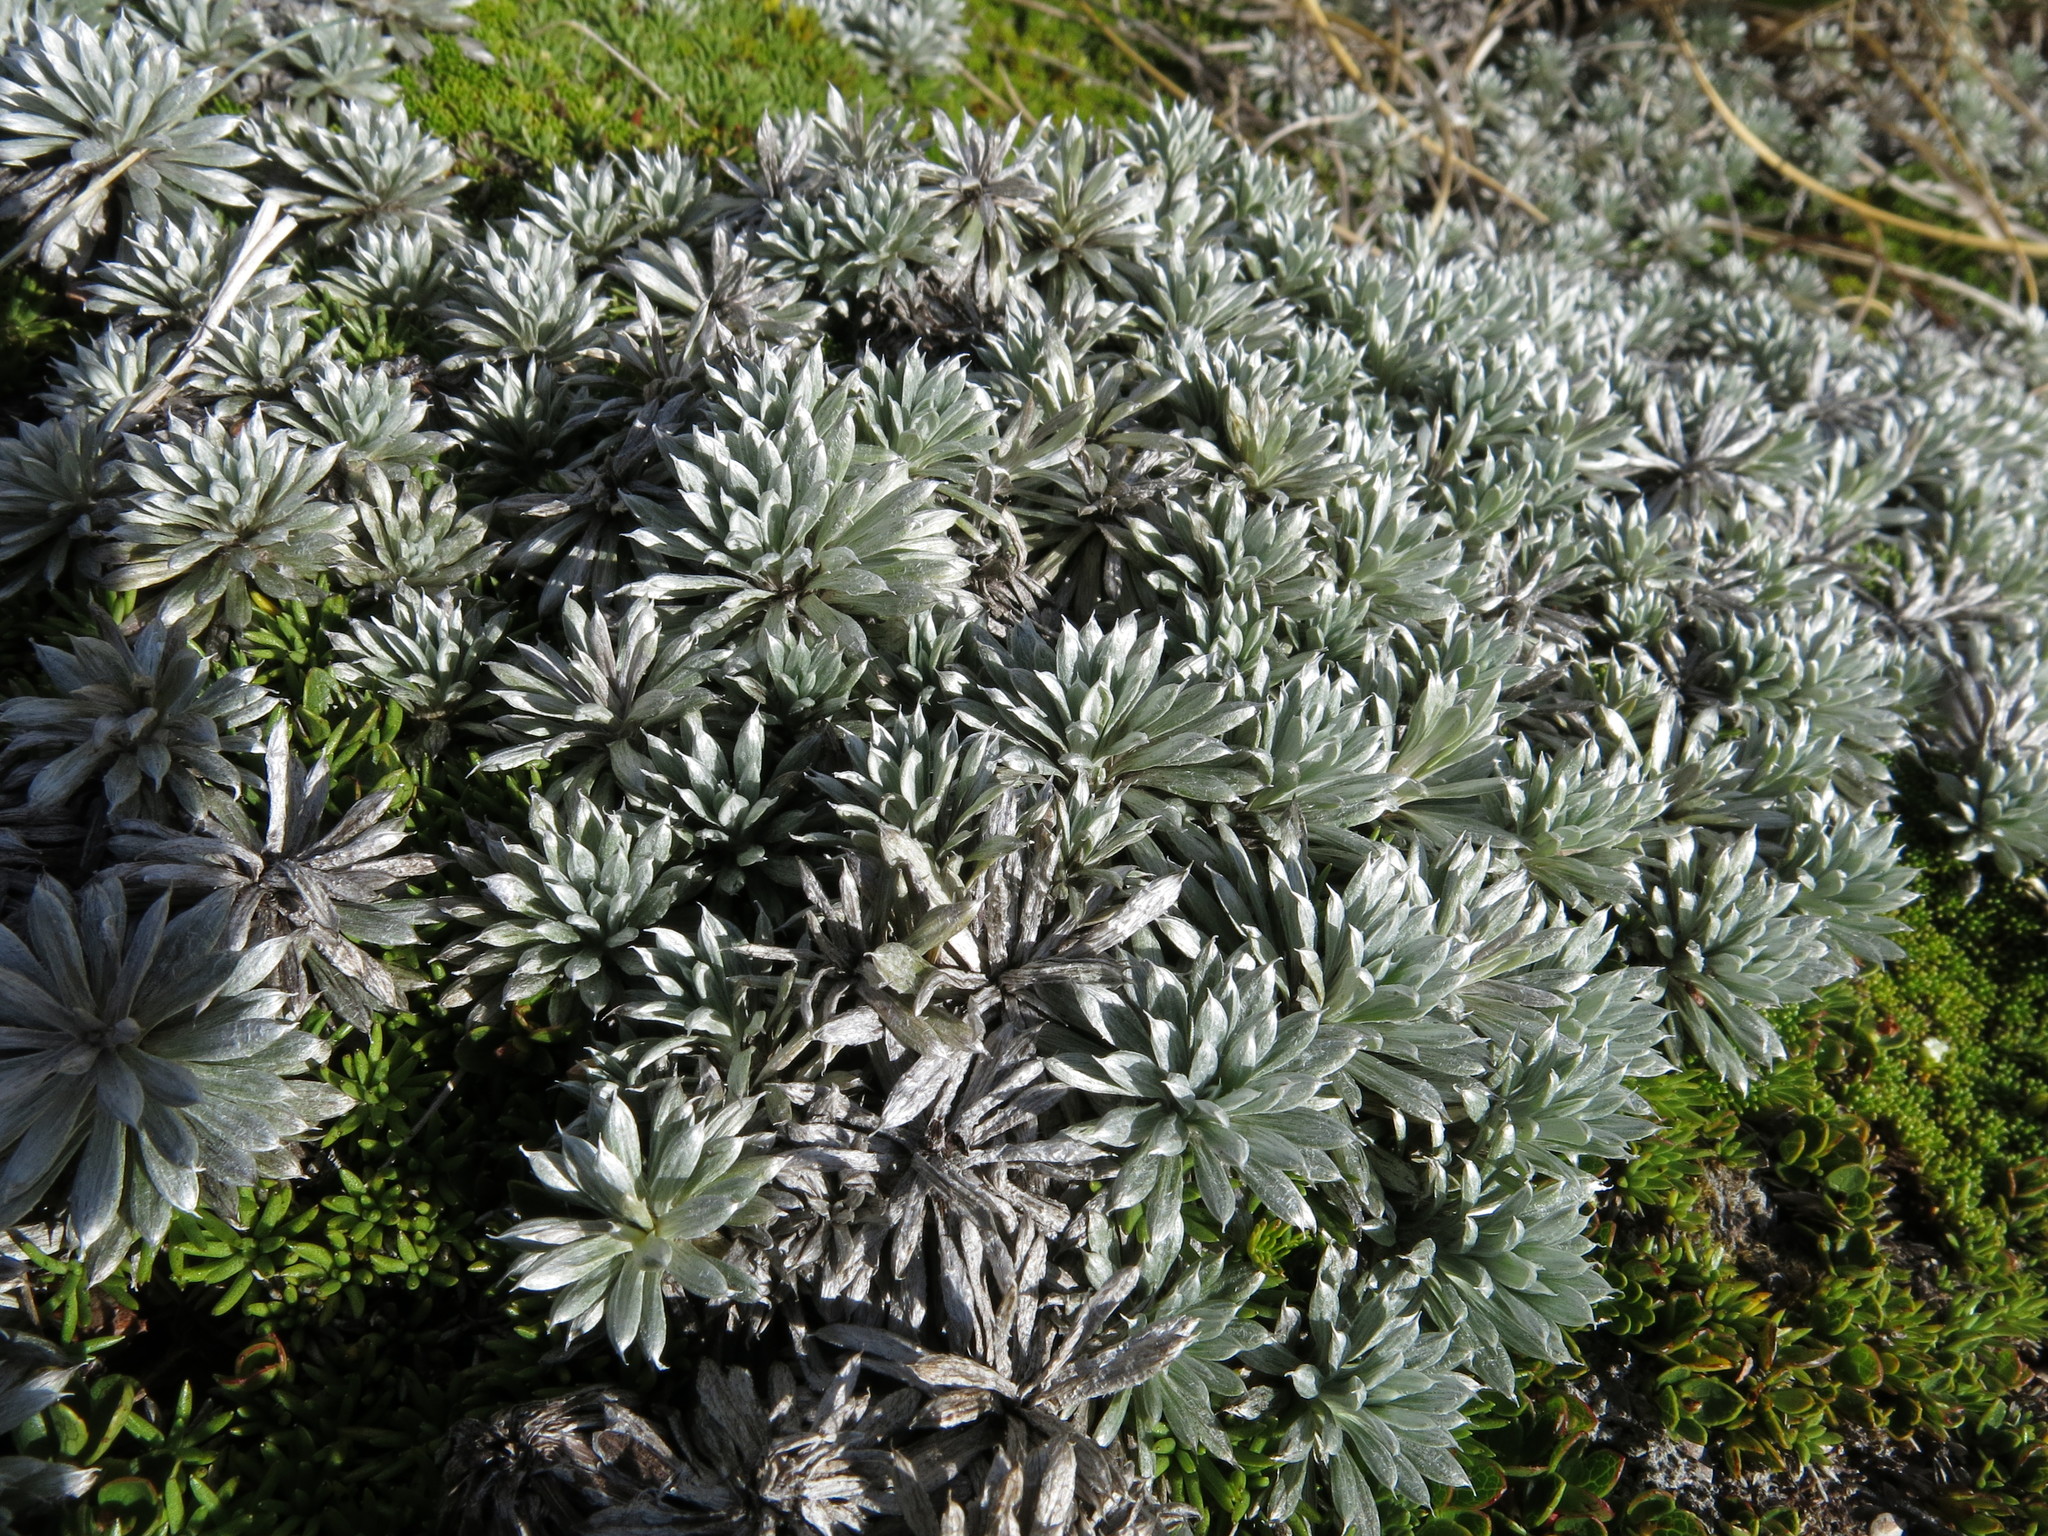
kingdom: Plantae
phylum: Tracheophyta
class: Magnoliopsida
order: Asterales
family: Asteraceae
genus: Celmisia
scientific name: Celmisia hectorii
